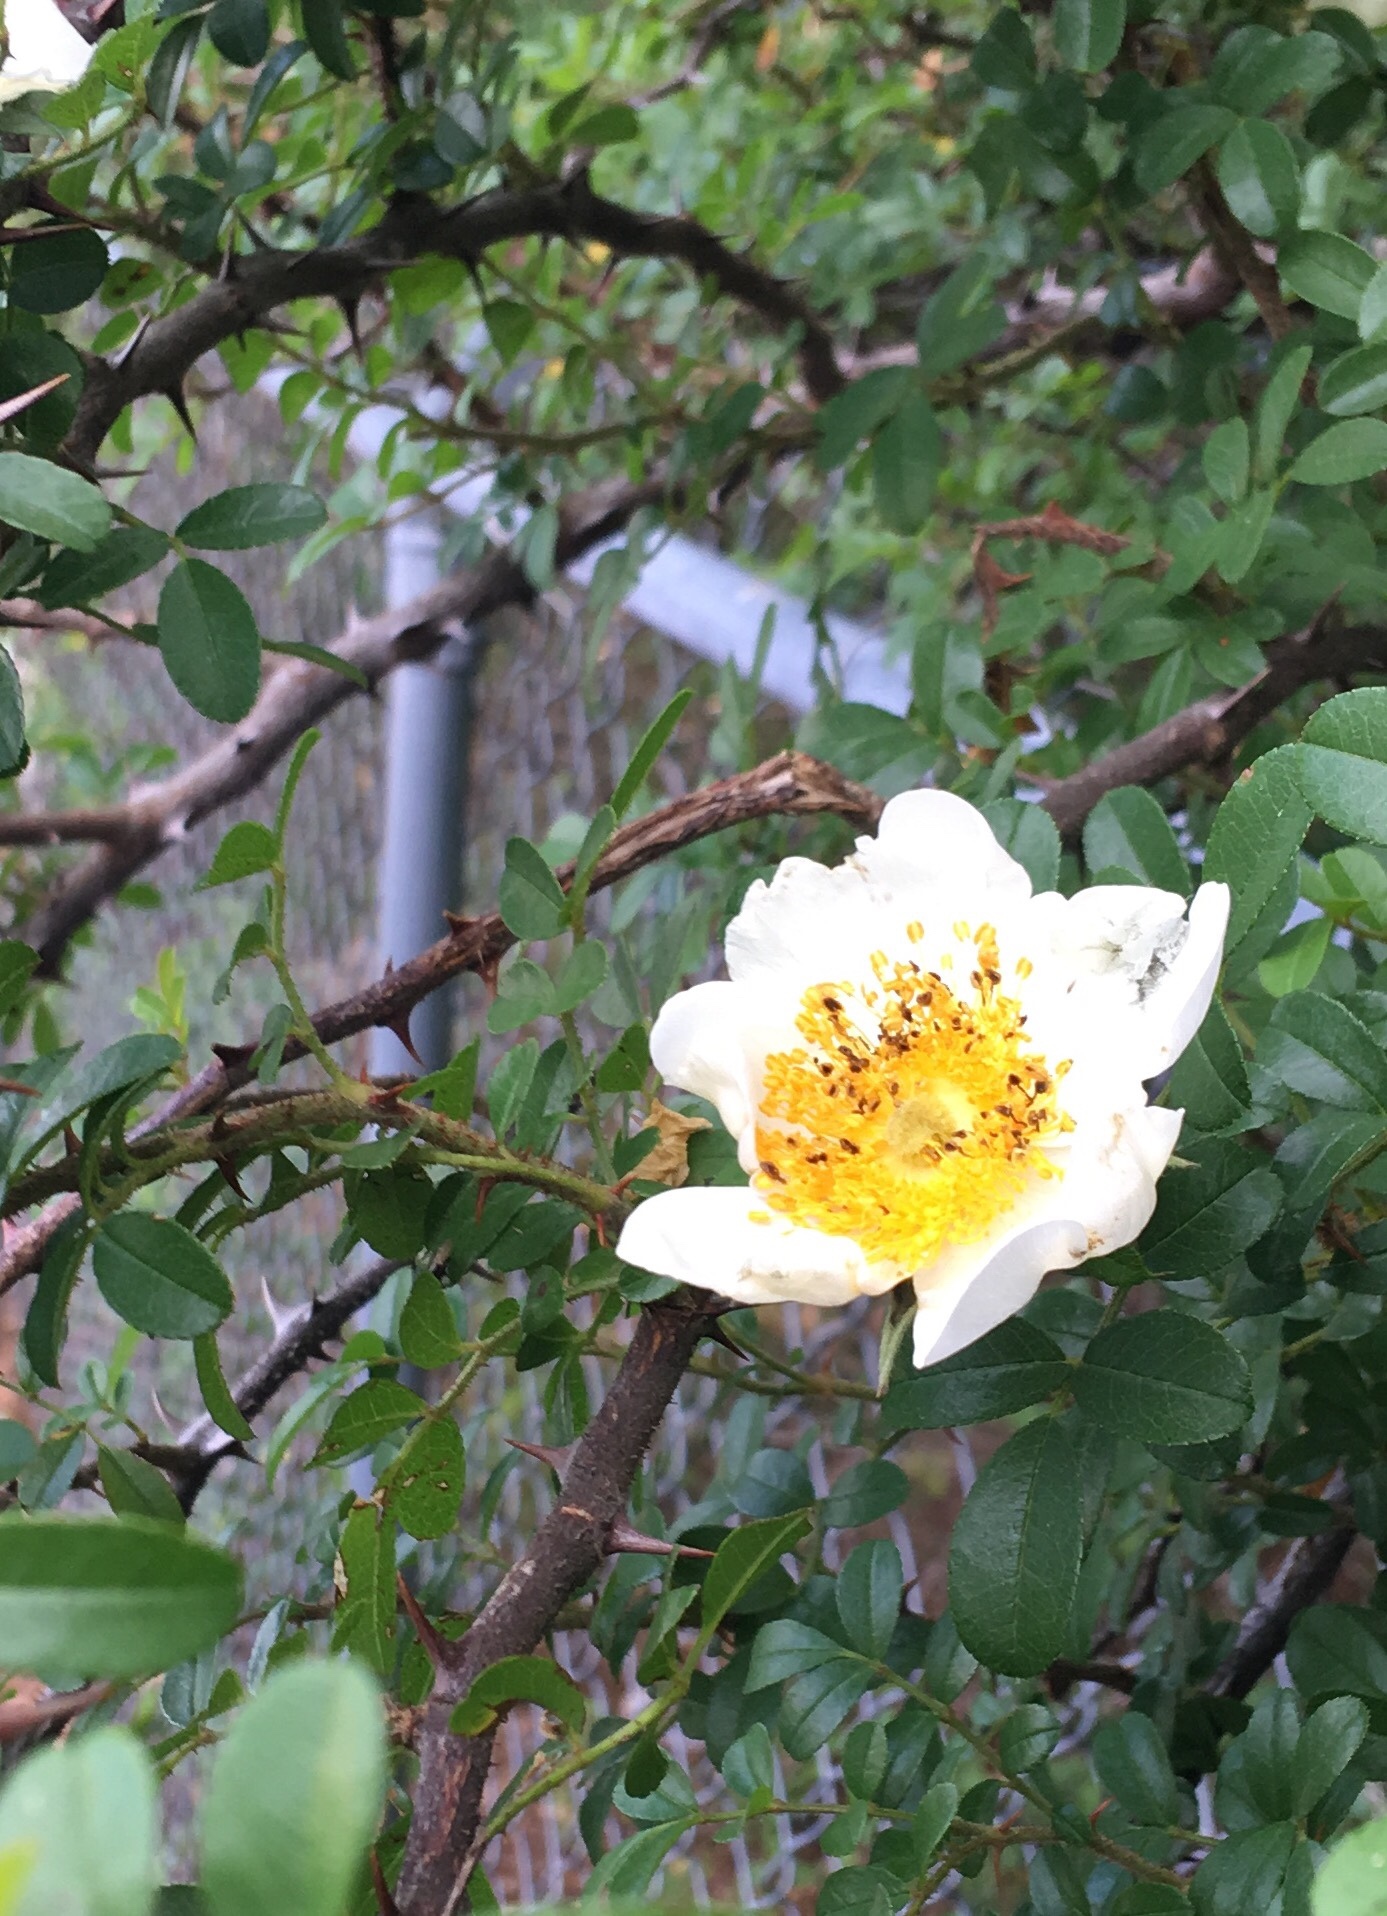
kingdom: Plantae
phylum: Tracheophyta
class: Magnoliopsida
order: Rosales
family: Rosaceae
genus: Rosa
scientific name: Rosa bracteata
